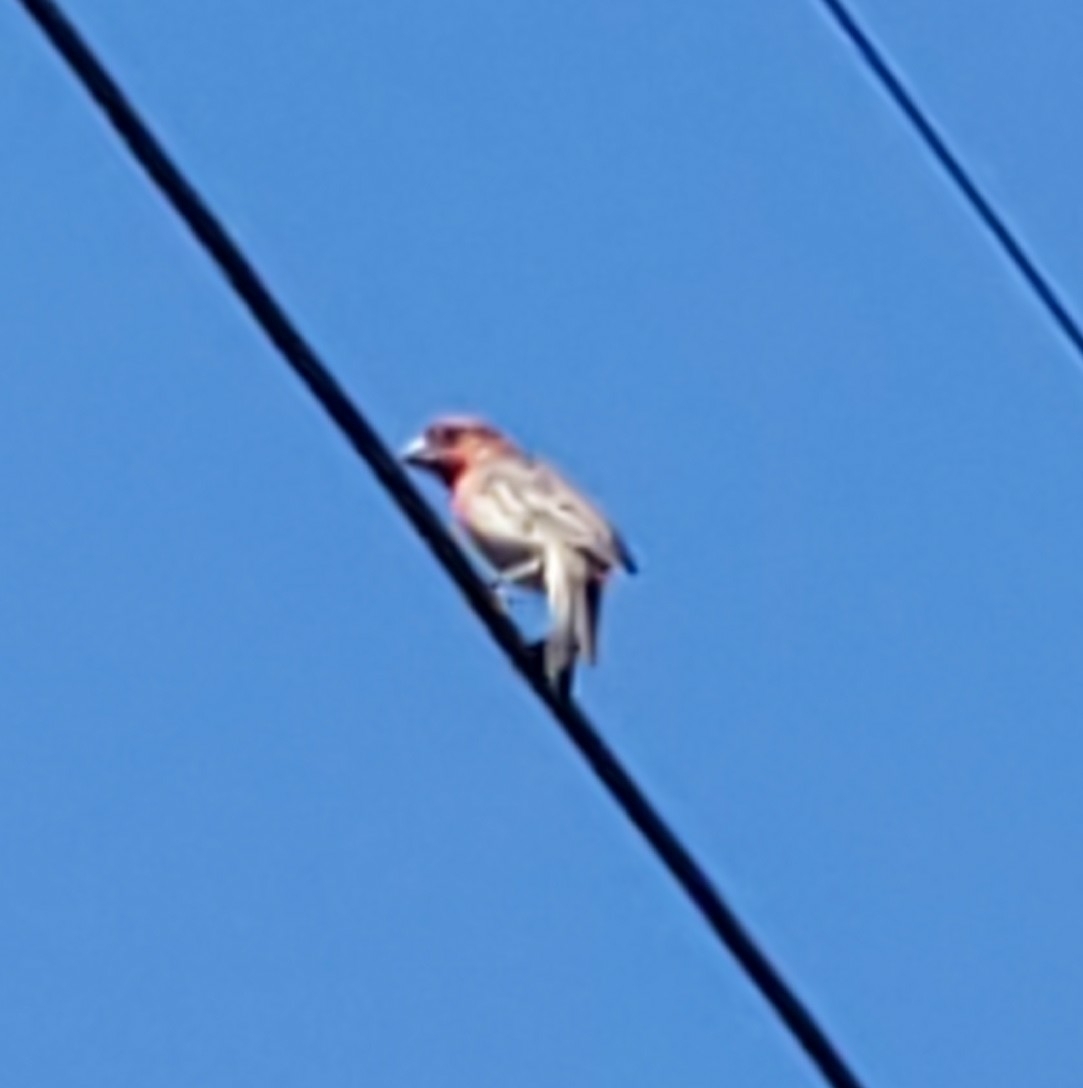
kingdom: Animalia
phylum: Chordata
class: Aves
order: Passeriformes
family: Fringillidae
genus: Haemorhous
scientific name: Haemorhous mexicanus
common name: House finch
